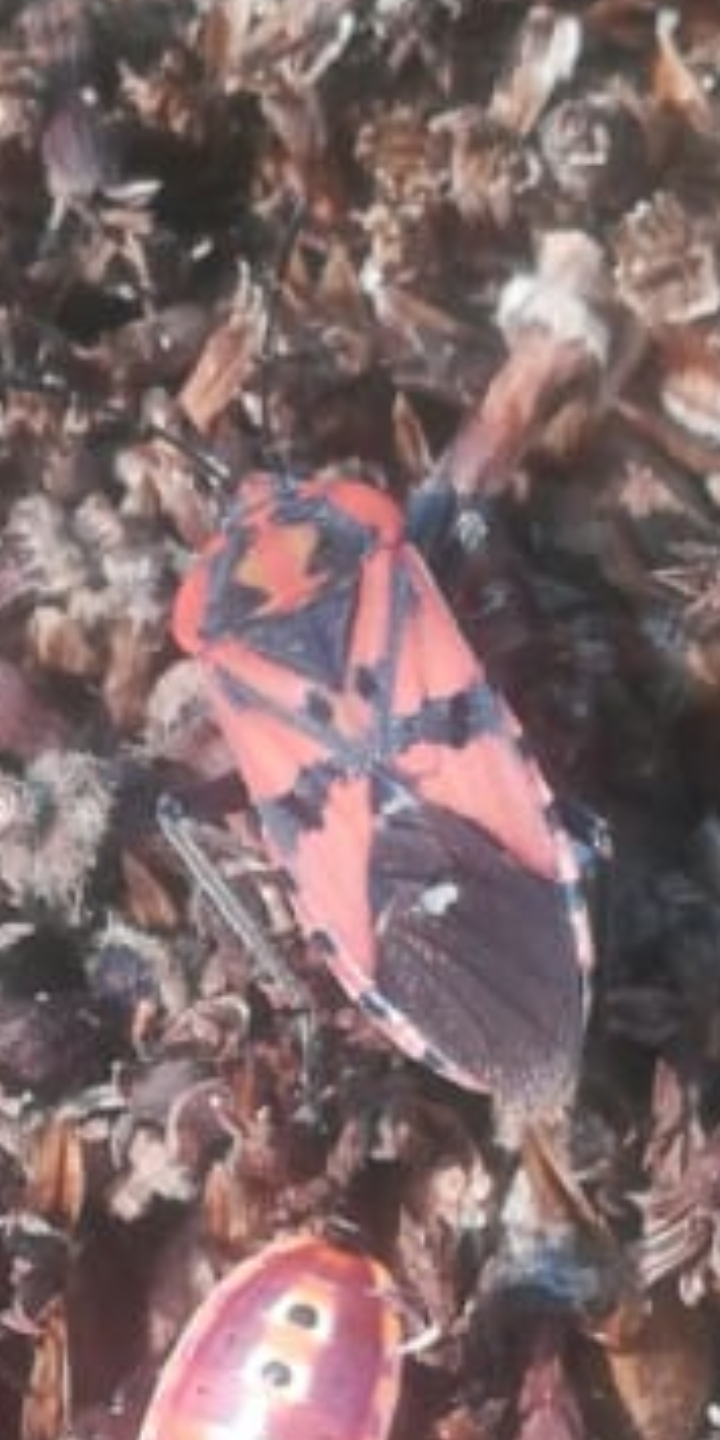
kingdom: Animalia
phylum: Arthropoda
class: Insecta
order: Hemiptera
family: Lygaeidae
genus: Spilostethus
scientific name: Spilostethus pandurus
